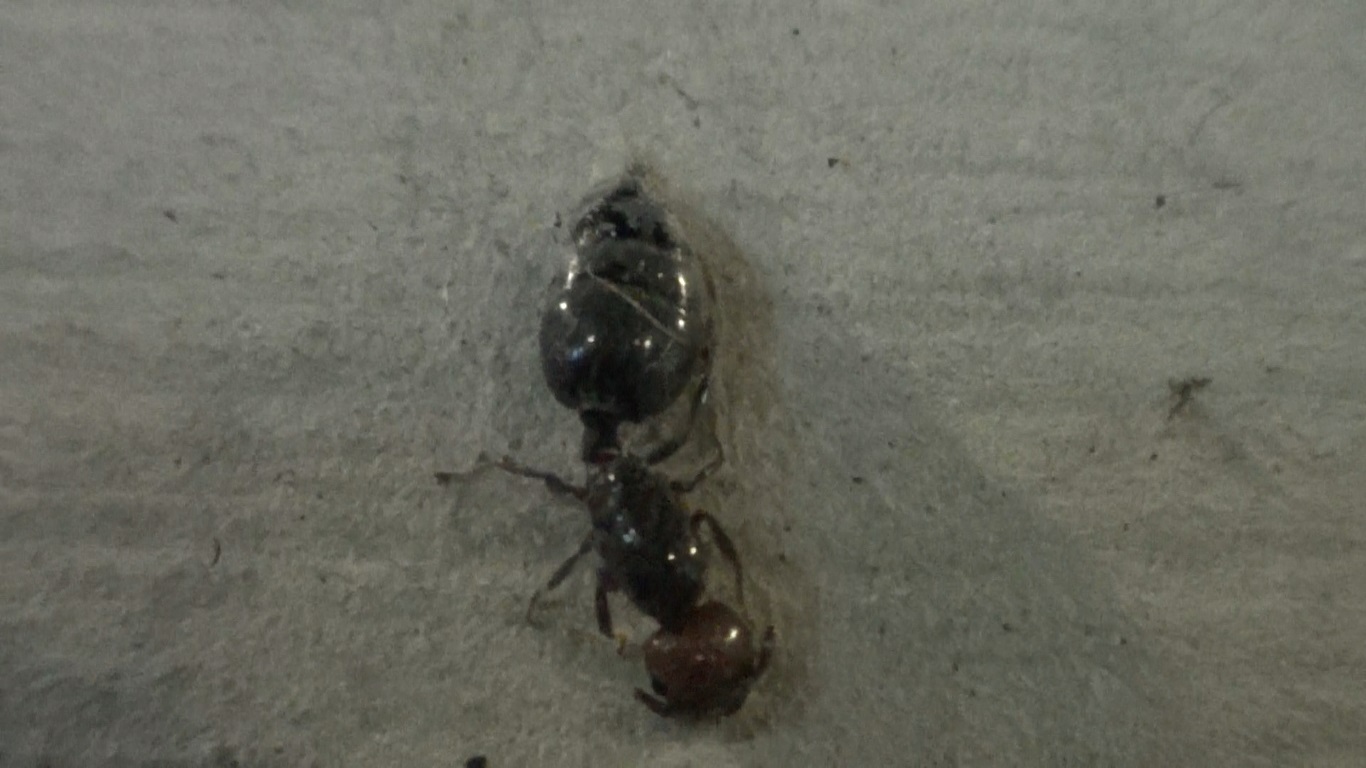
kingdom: Animalia
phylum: Arthropoda
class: Insecta
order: Hymenoptera
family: Formicidae
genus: Crematogaster
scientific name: Crematogaster scutellaris
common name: Fourmi du liège
